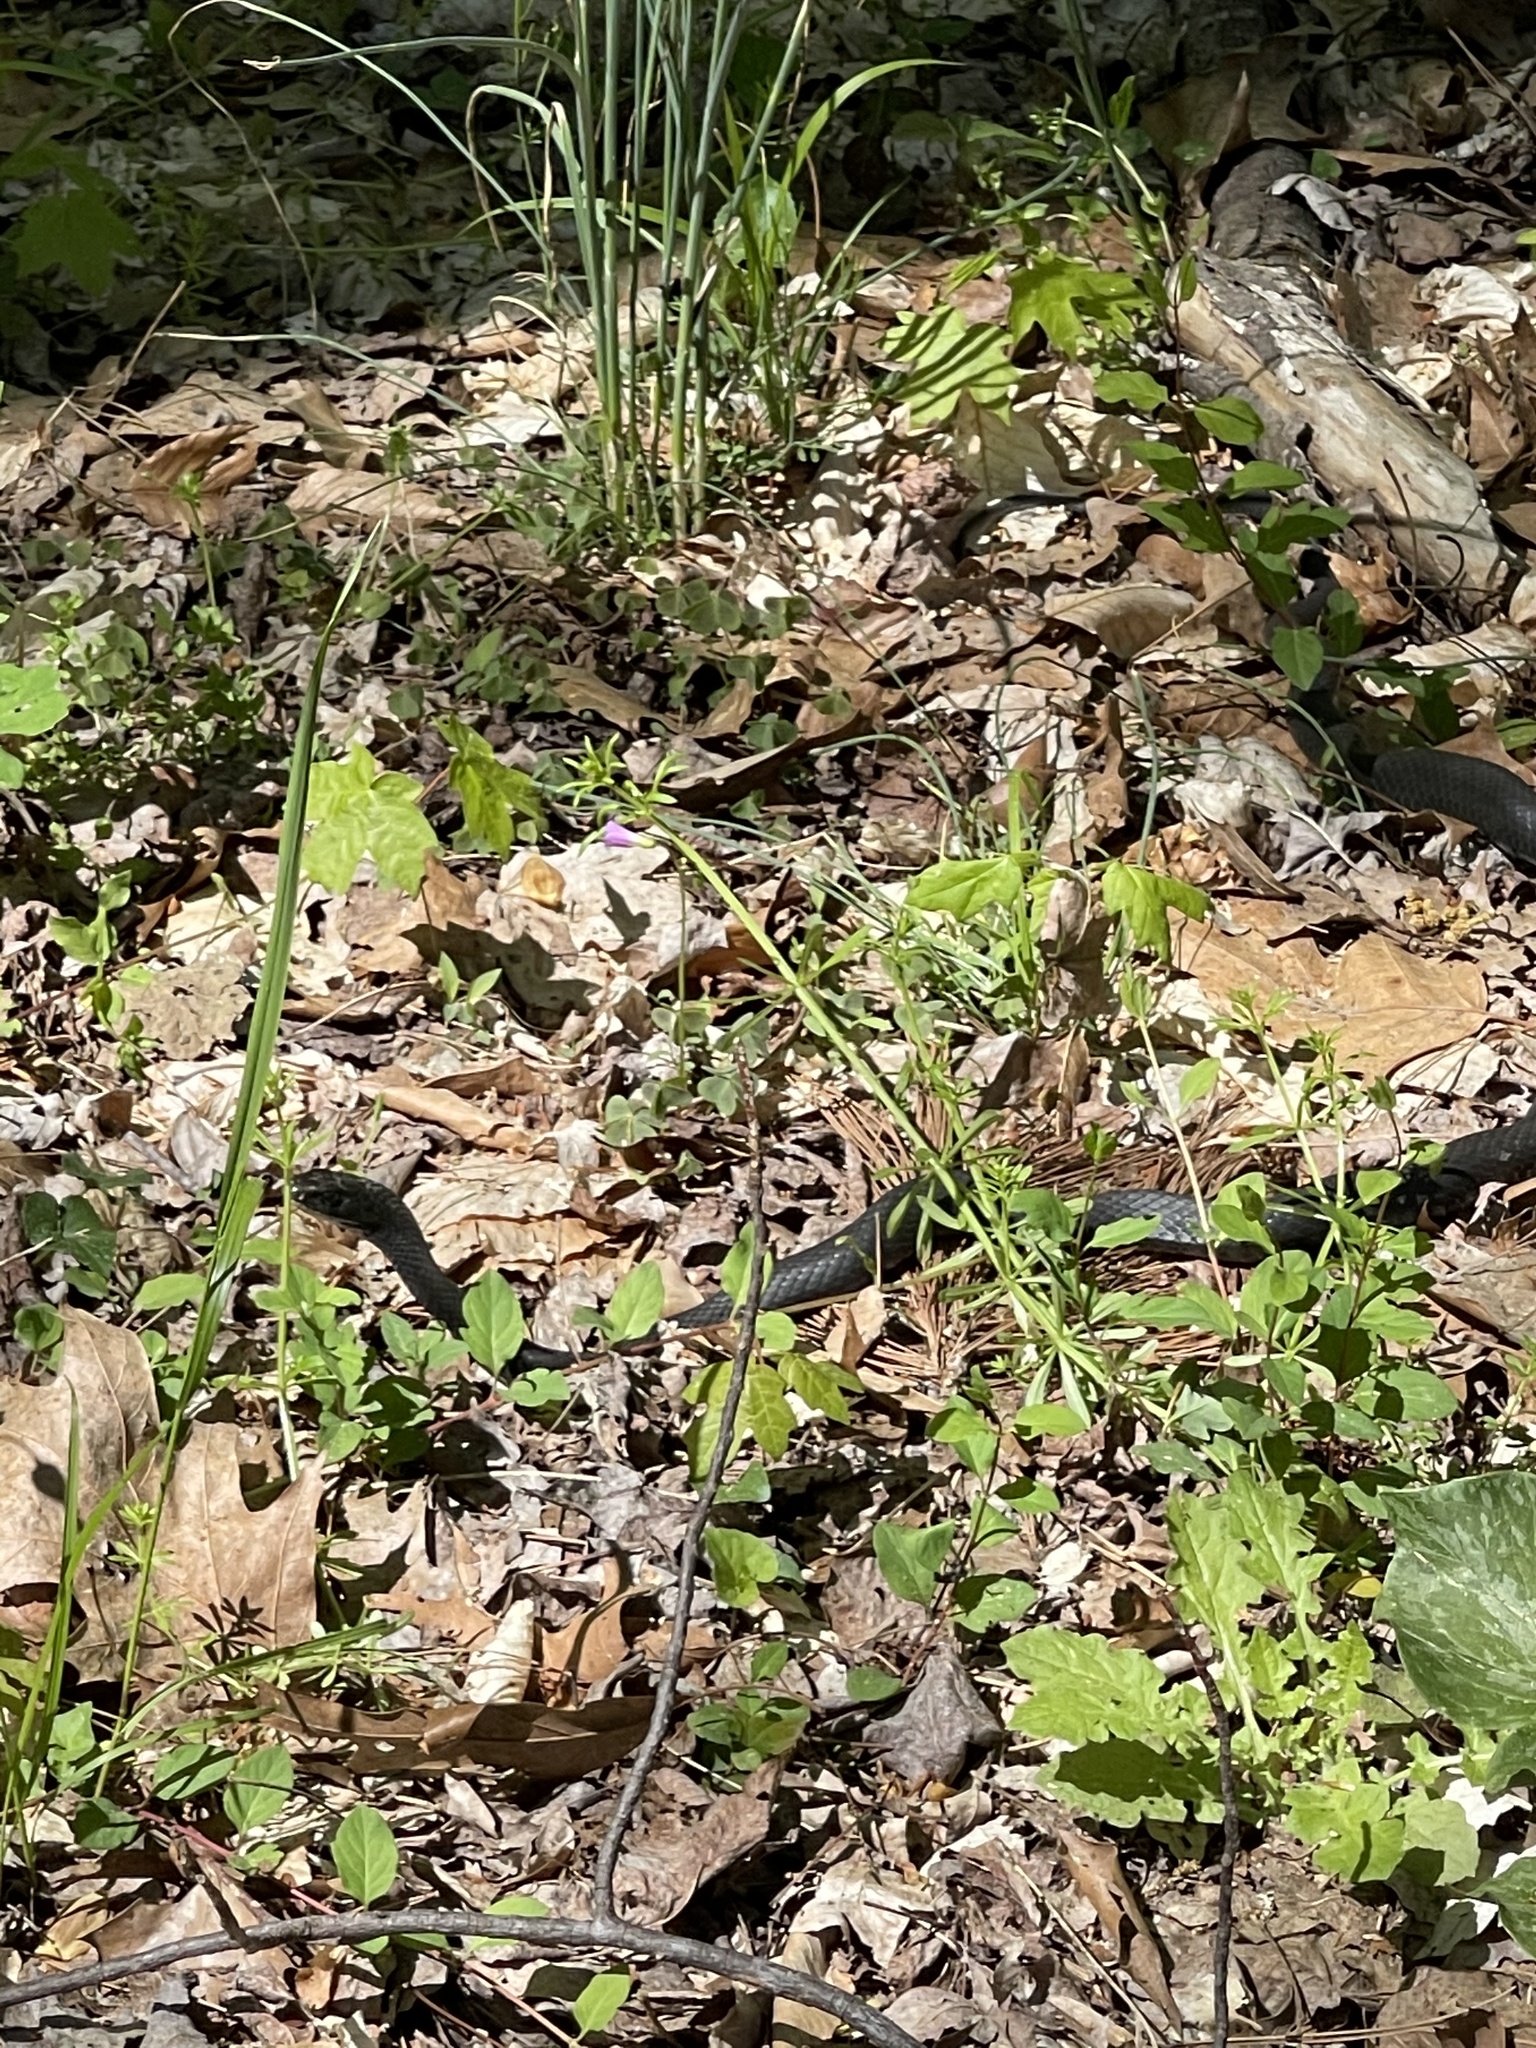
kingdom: Animalia
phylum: Chordata
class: Squamata
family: Colubridae
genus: Coluber
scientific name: Coluber constrictor
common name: Eastern racer
